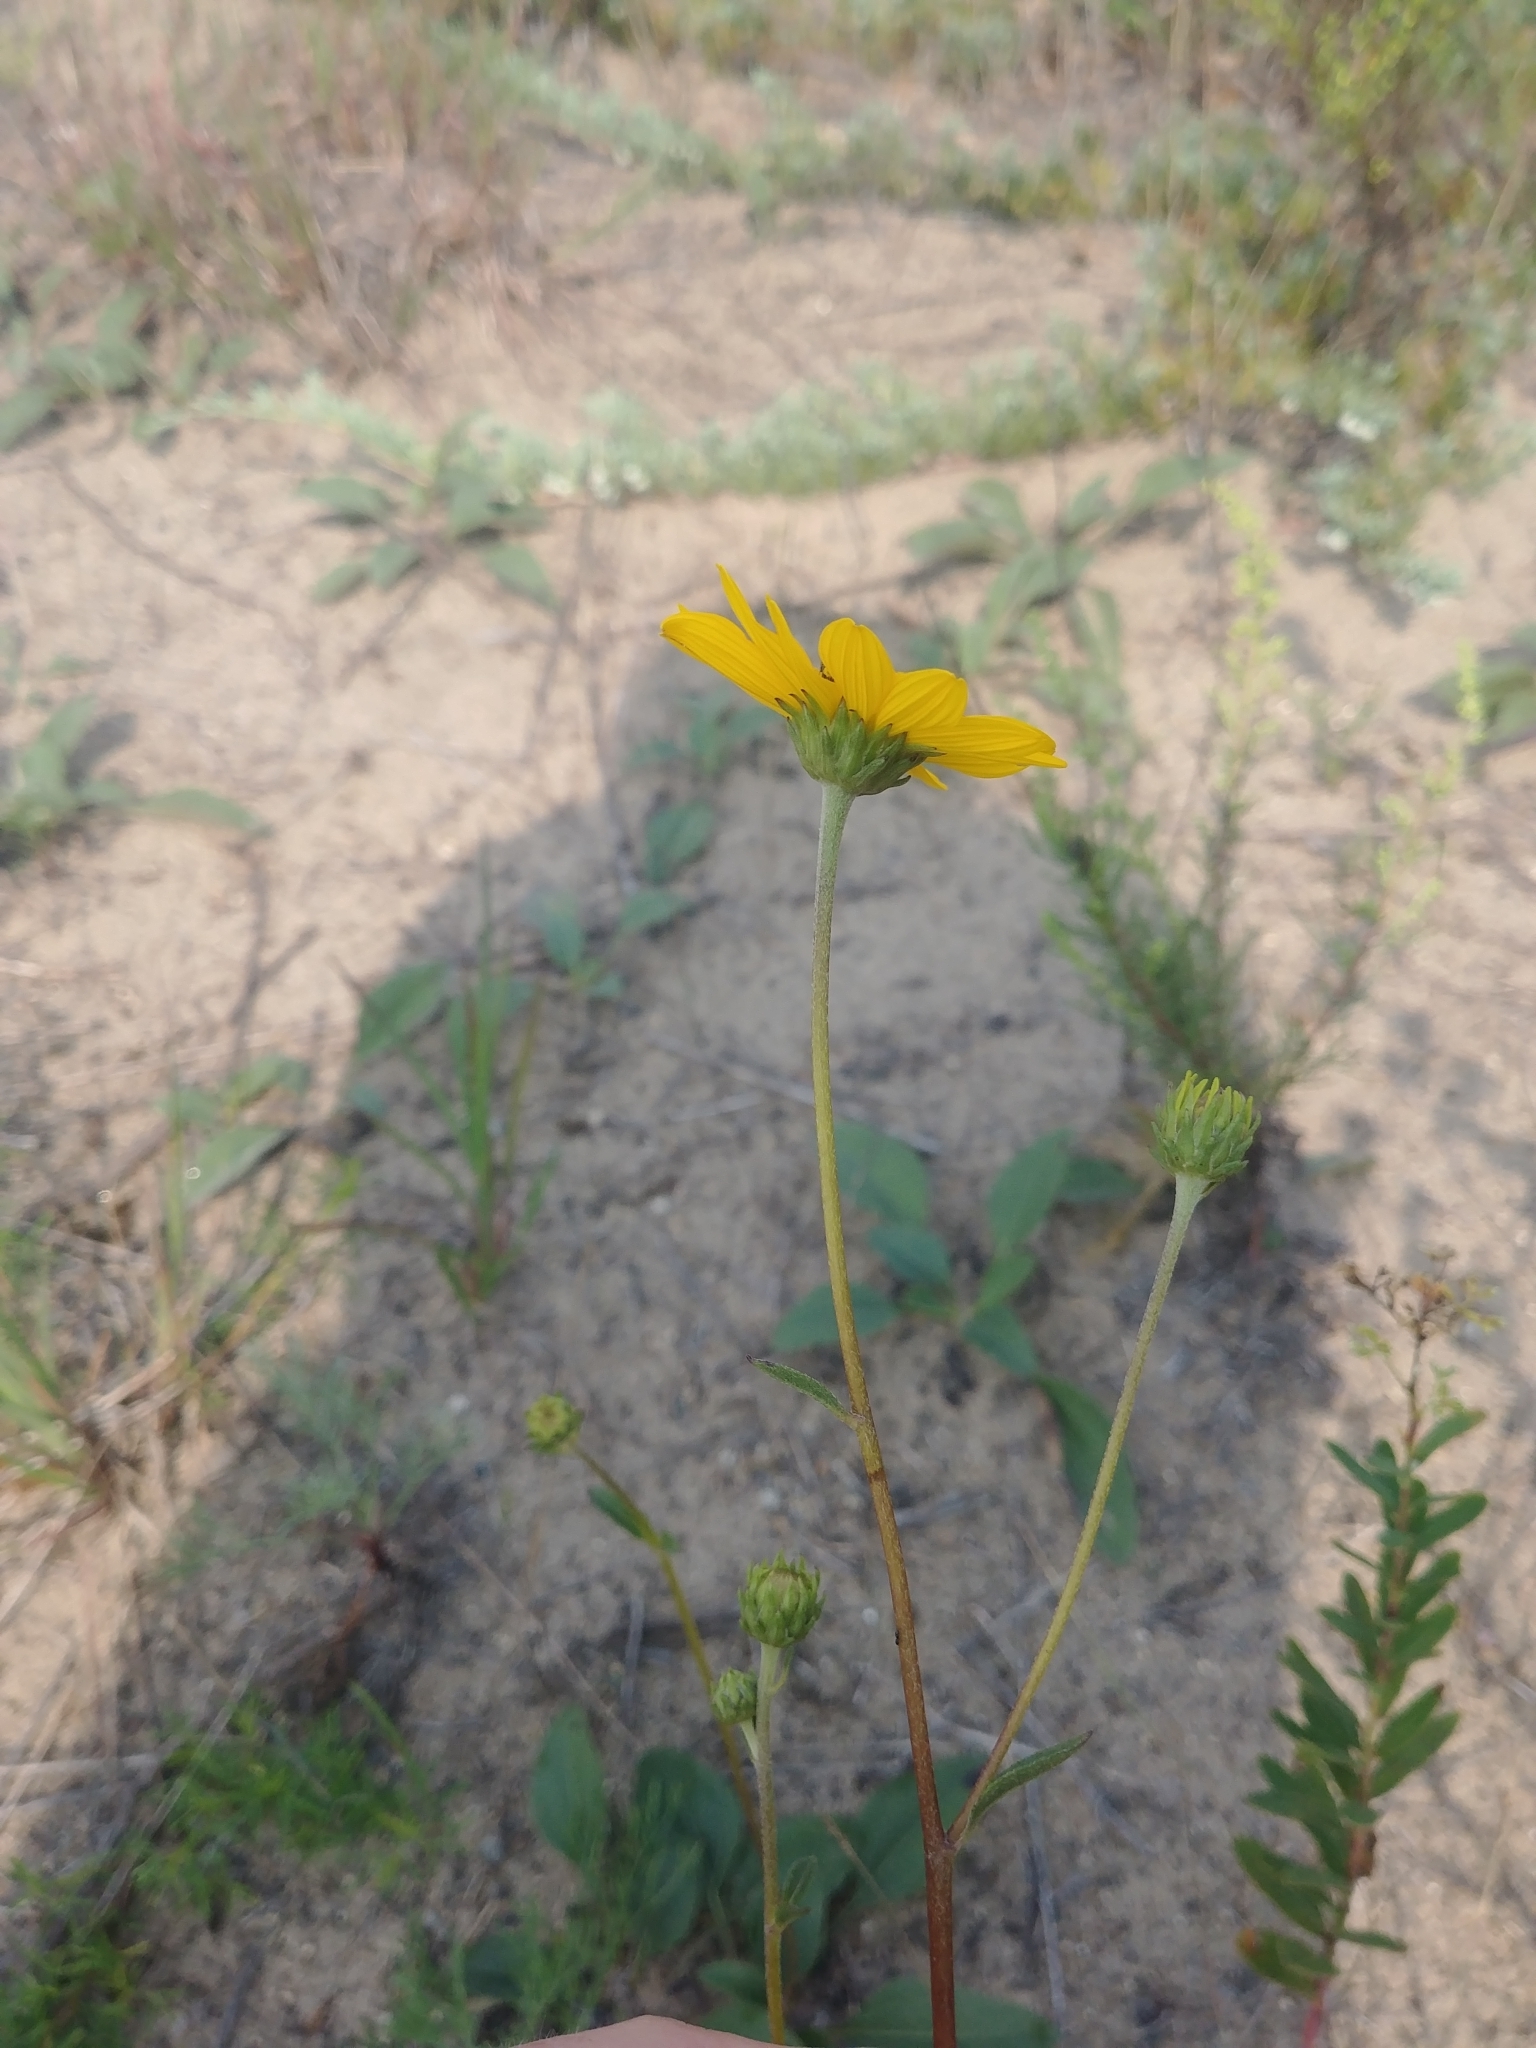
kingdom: Plantae
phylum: Tracheophyta
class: Magnoliopsida
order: Asterales
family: Asteraceae
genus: Helianthus
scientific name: Helianthus occidentalis
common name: Western sunflower
